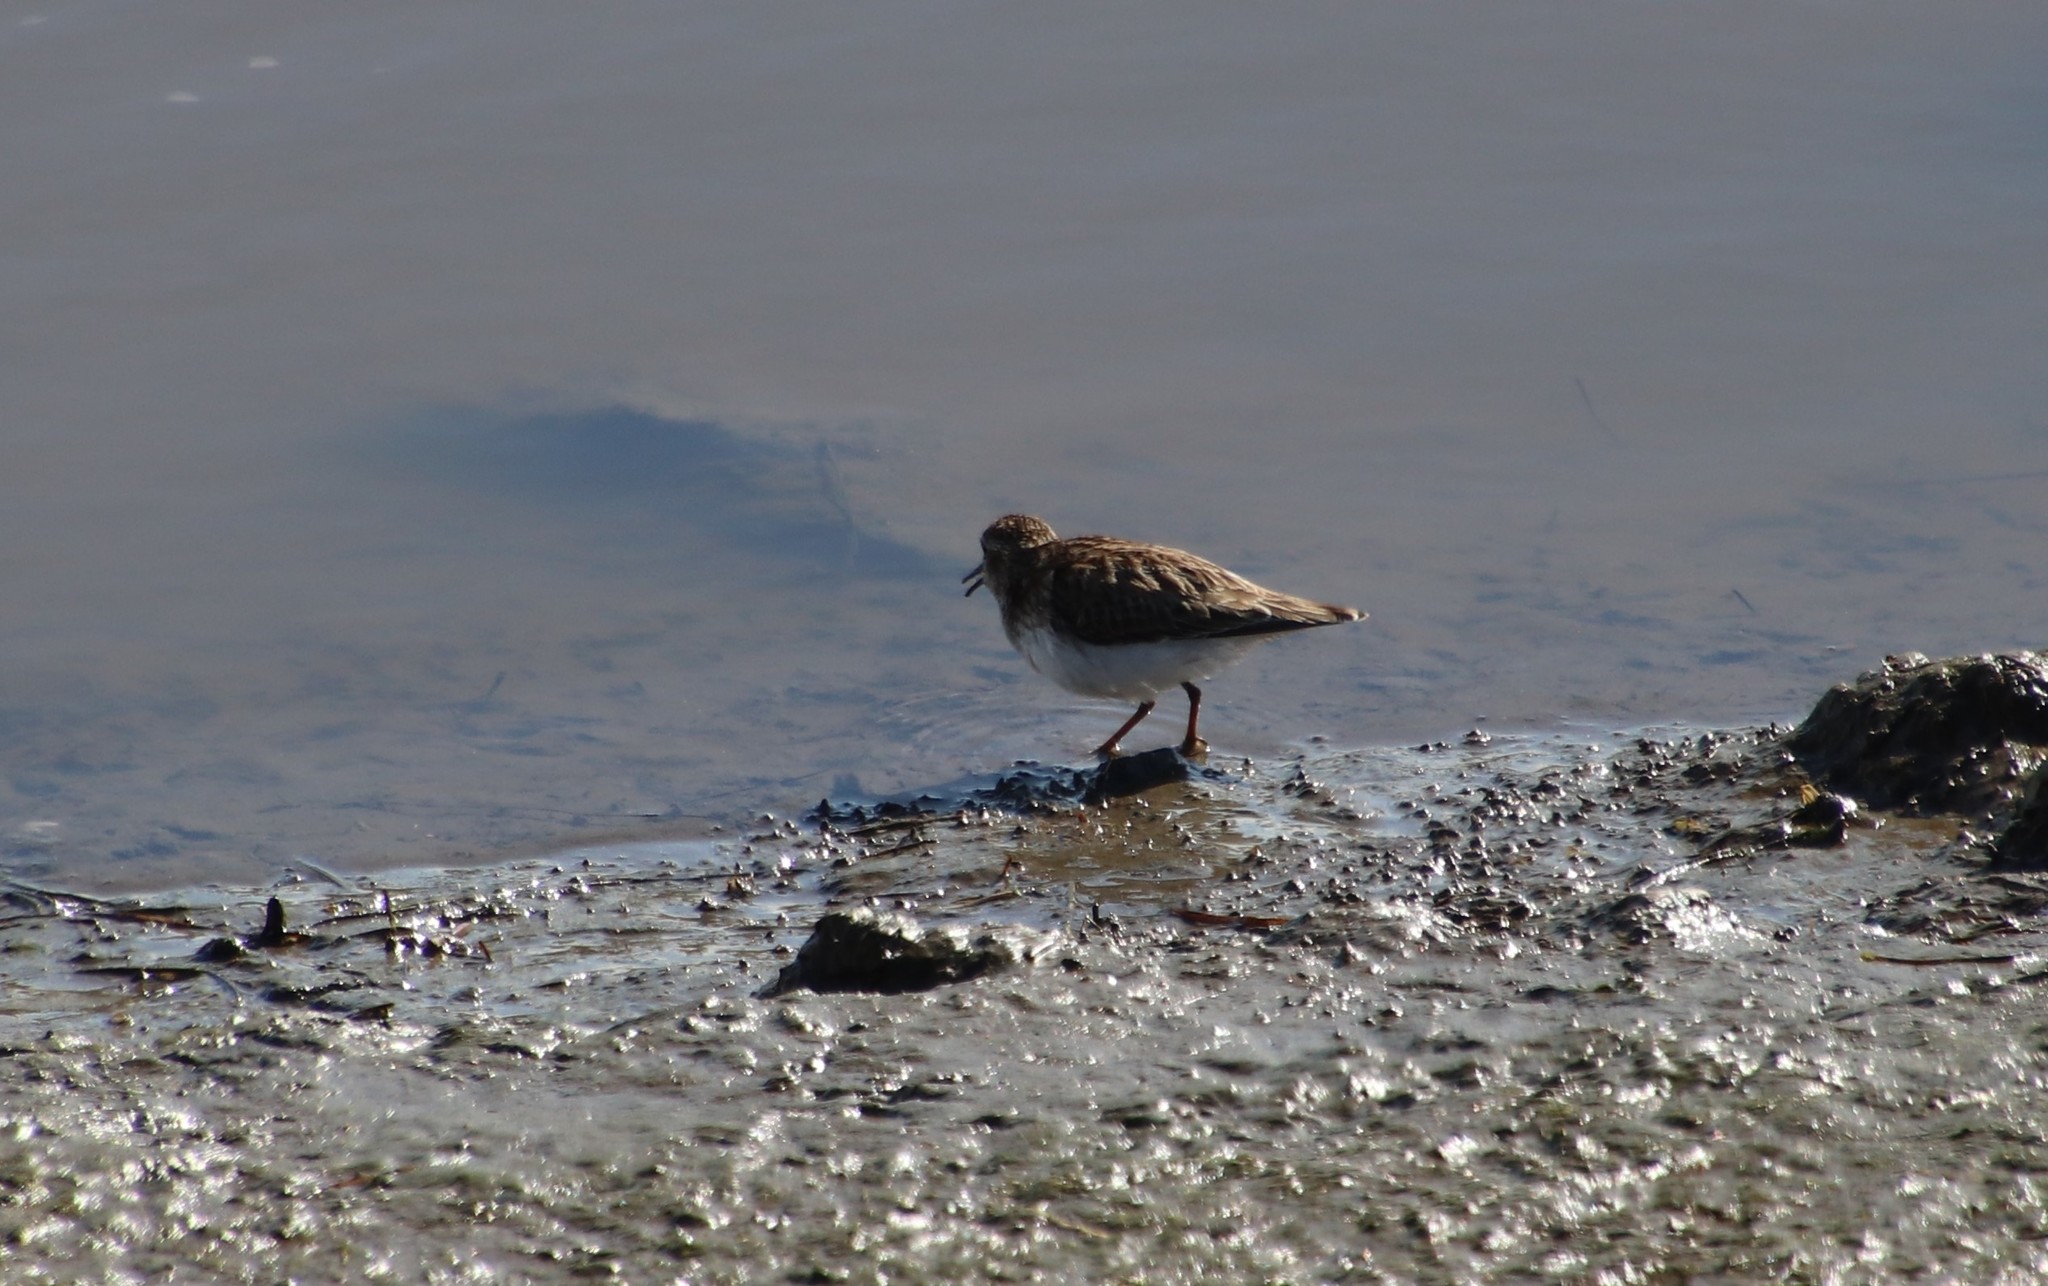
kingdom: Animalia
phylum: Chordata
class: Aves
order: Charadriiformes
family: Scolopacidae
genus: Calidris
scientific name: Calidris minutilla
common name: Least sandpiper
